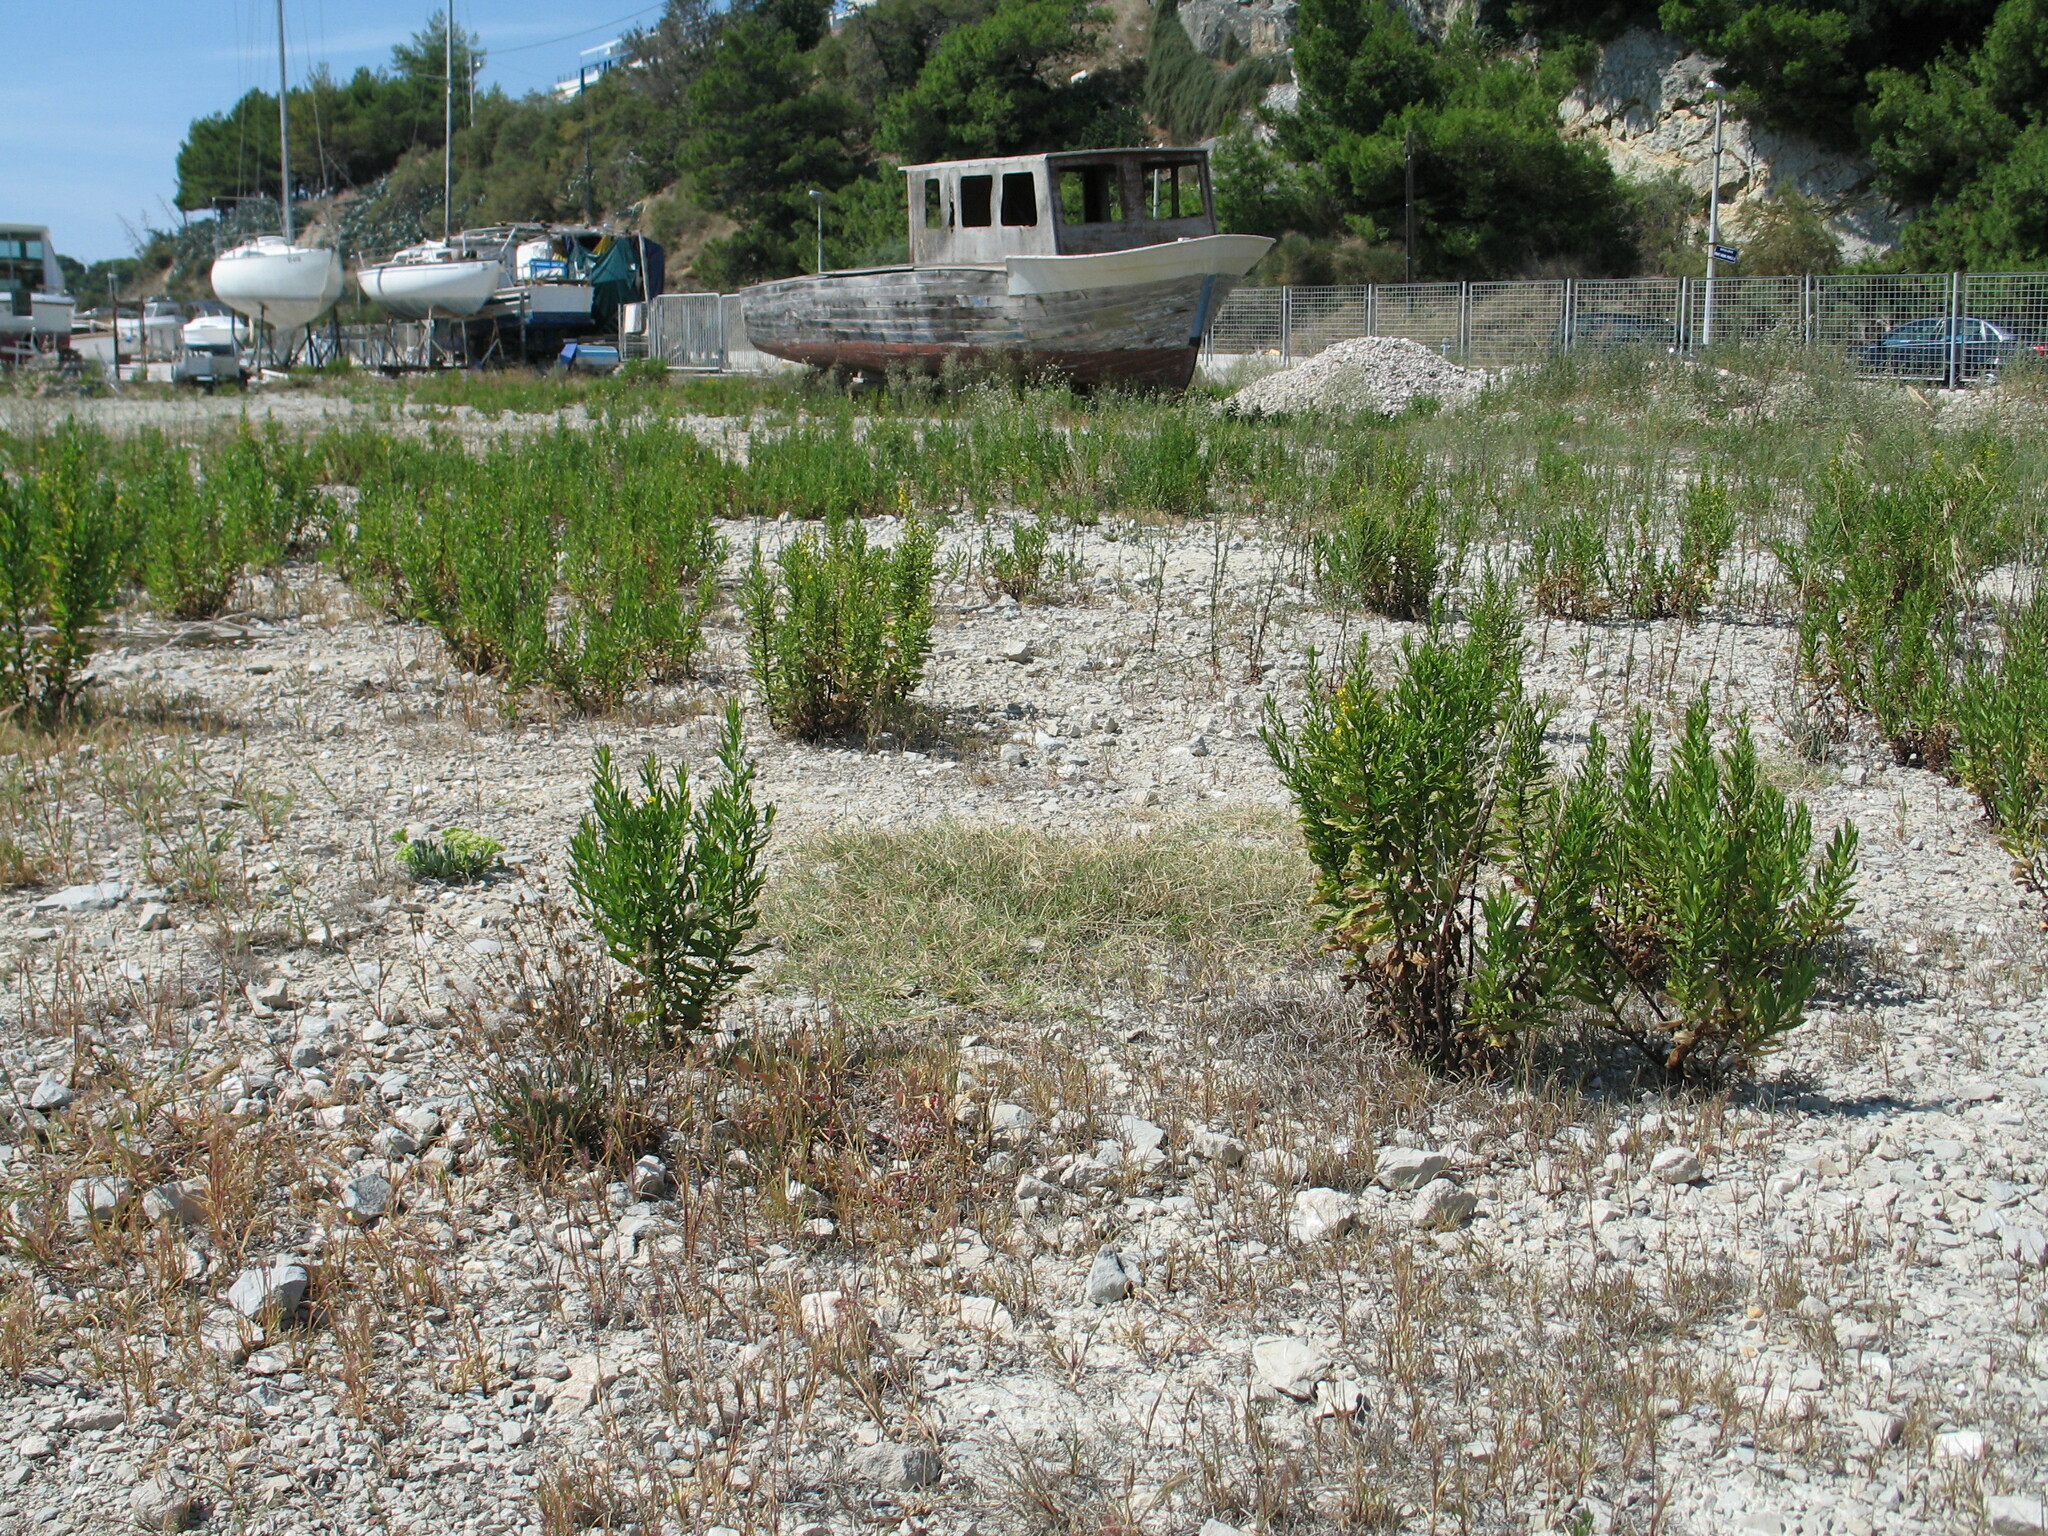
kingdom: Plantae
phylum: Tracheophyta
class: Magnoliopsida
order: Asterales
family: Asteraceae
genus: Dittrichia
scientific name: Dittrichia viscosa
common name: Woody fleabane
